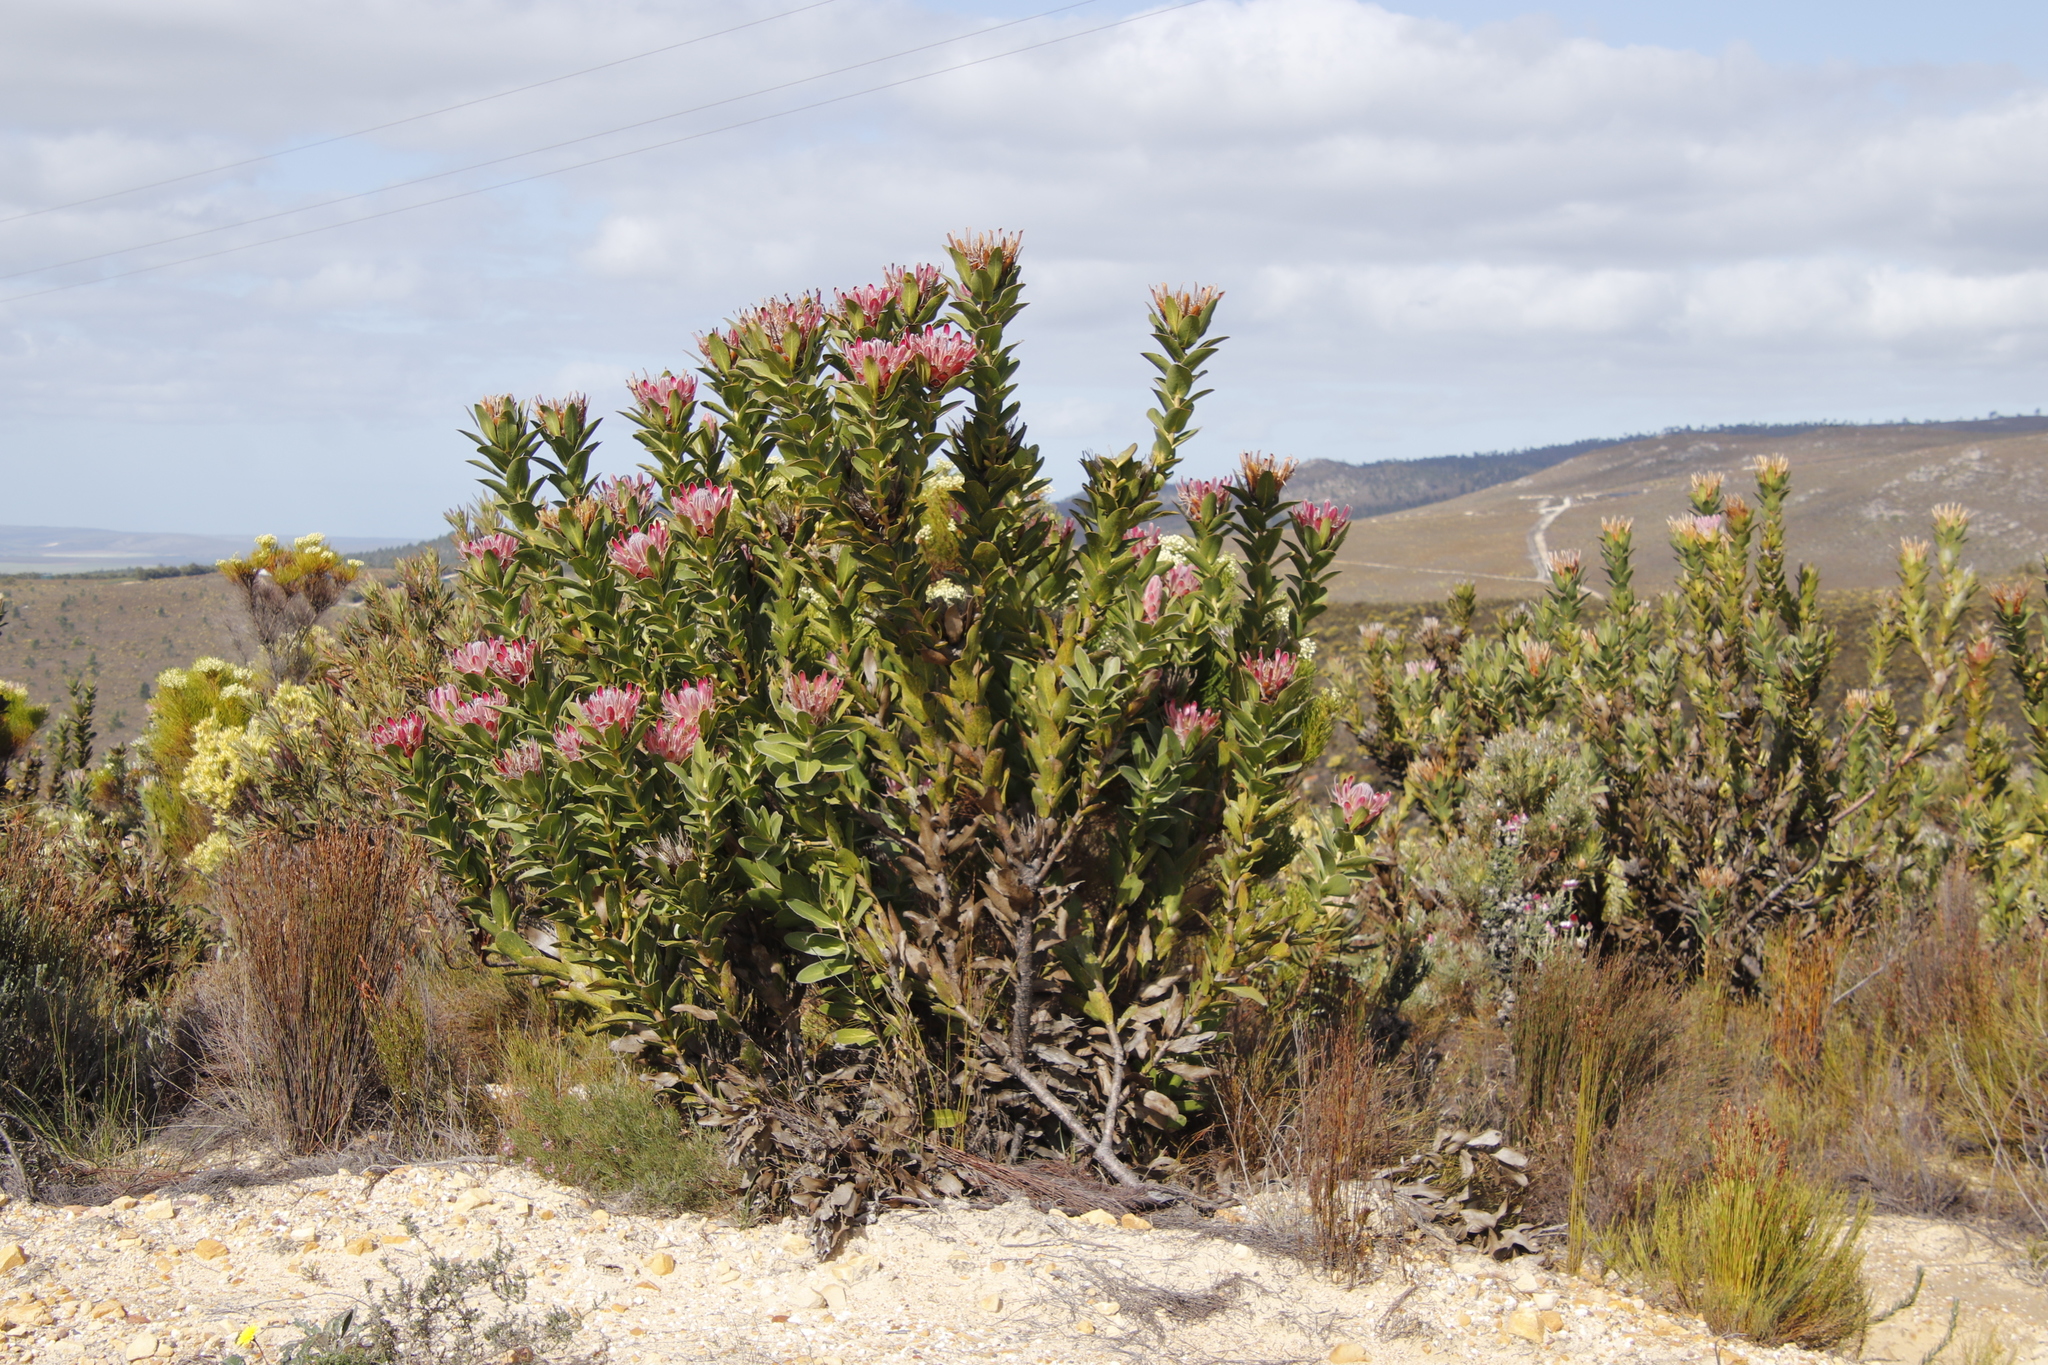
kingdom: Plantae
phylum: Tracheophyta
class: Magnoliopsida
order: Proteales
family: Proteaceae
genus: Protea
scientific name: Protea compacta
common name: Bot river protea
